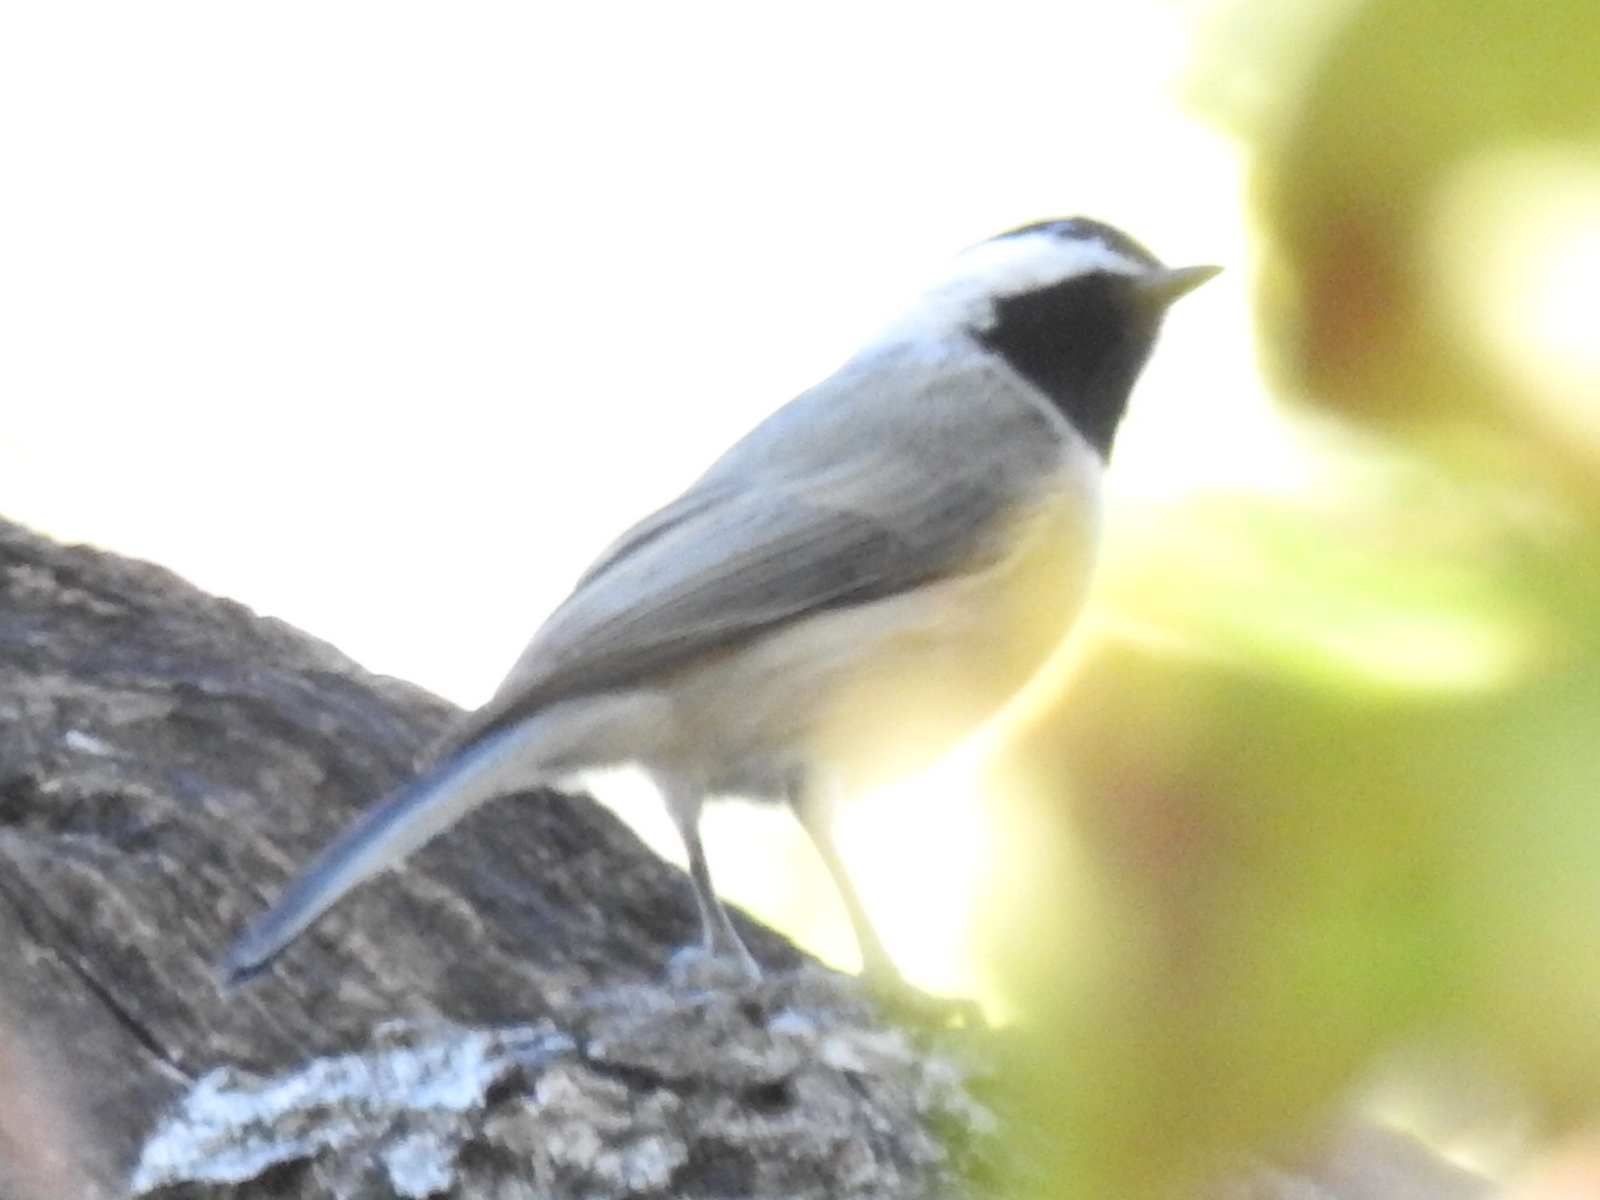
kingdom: Animalia
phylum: Chordata
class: Aves
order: Passeriformes
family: Paridae
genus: Poecile
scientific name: Poecile carolinensis
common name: Carolina chickadee
